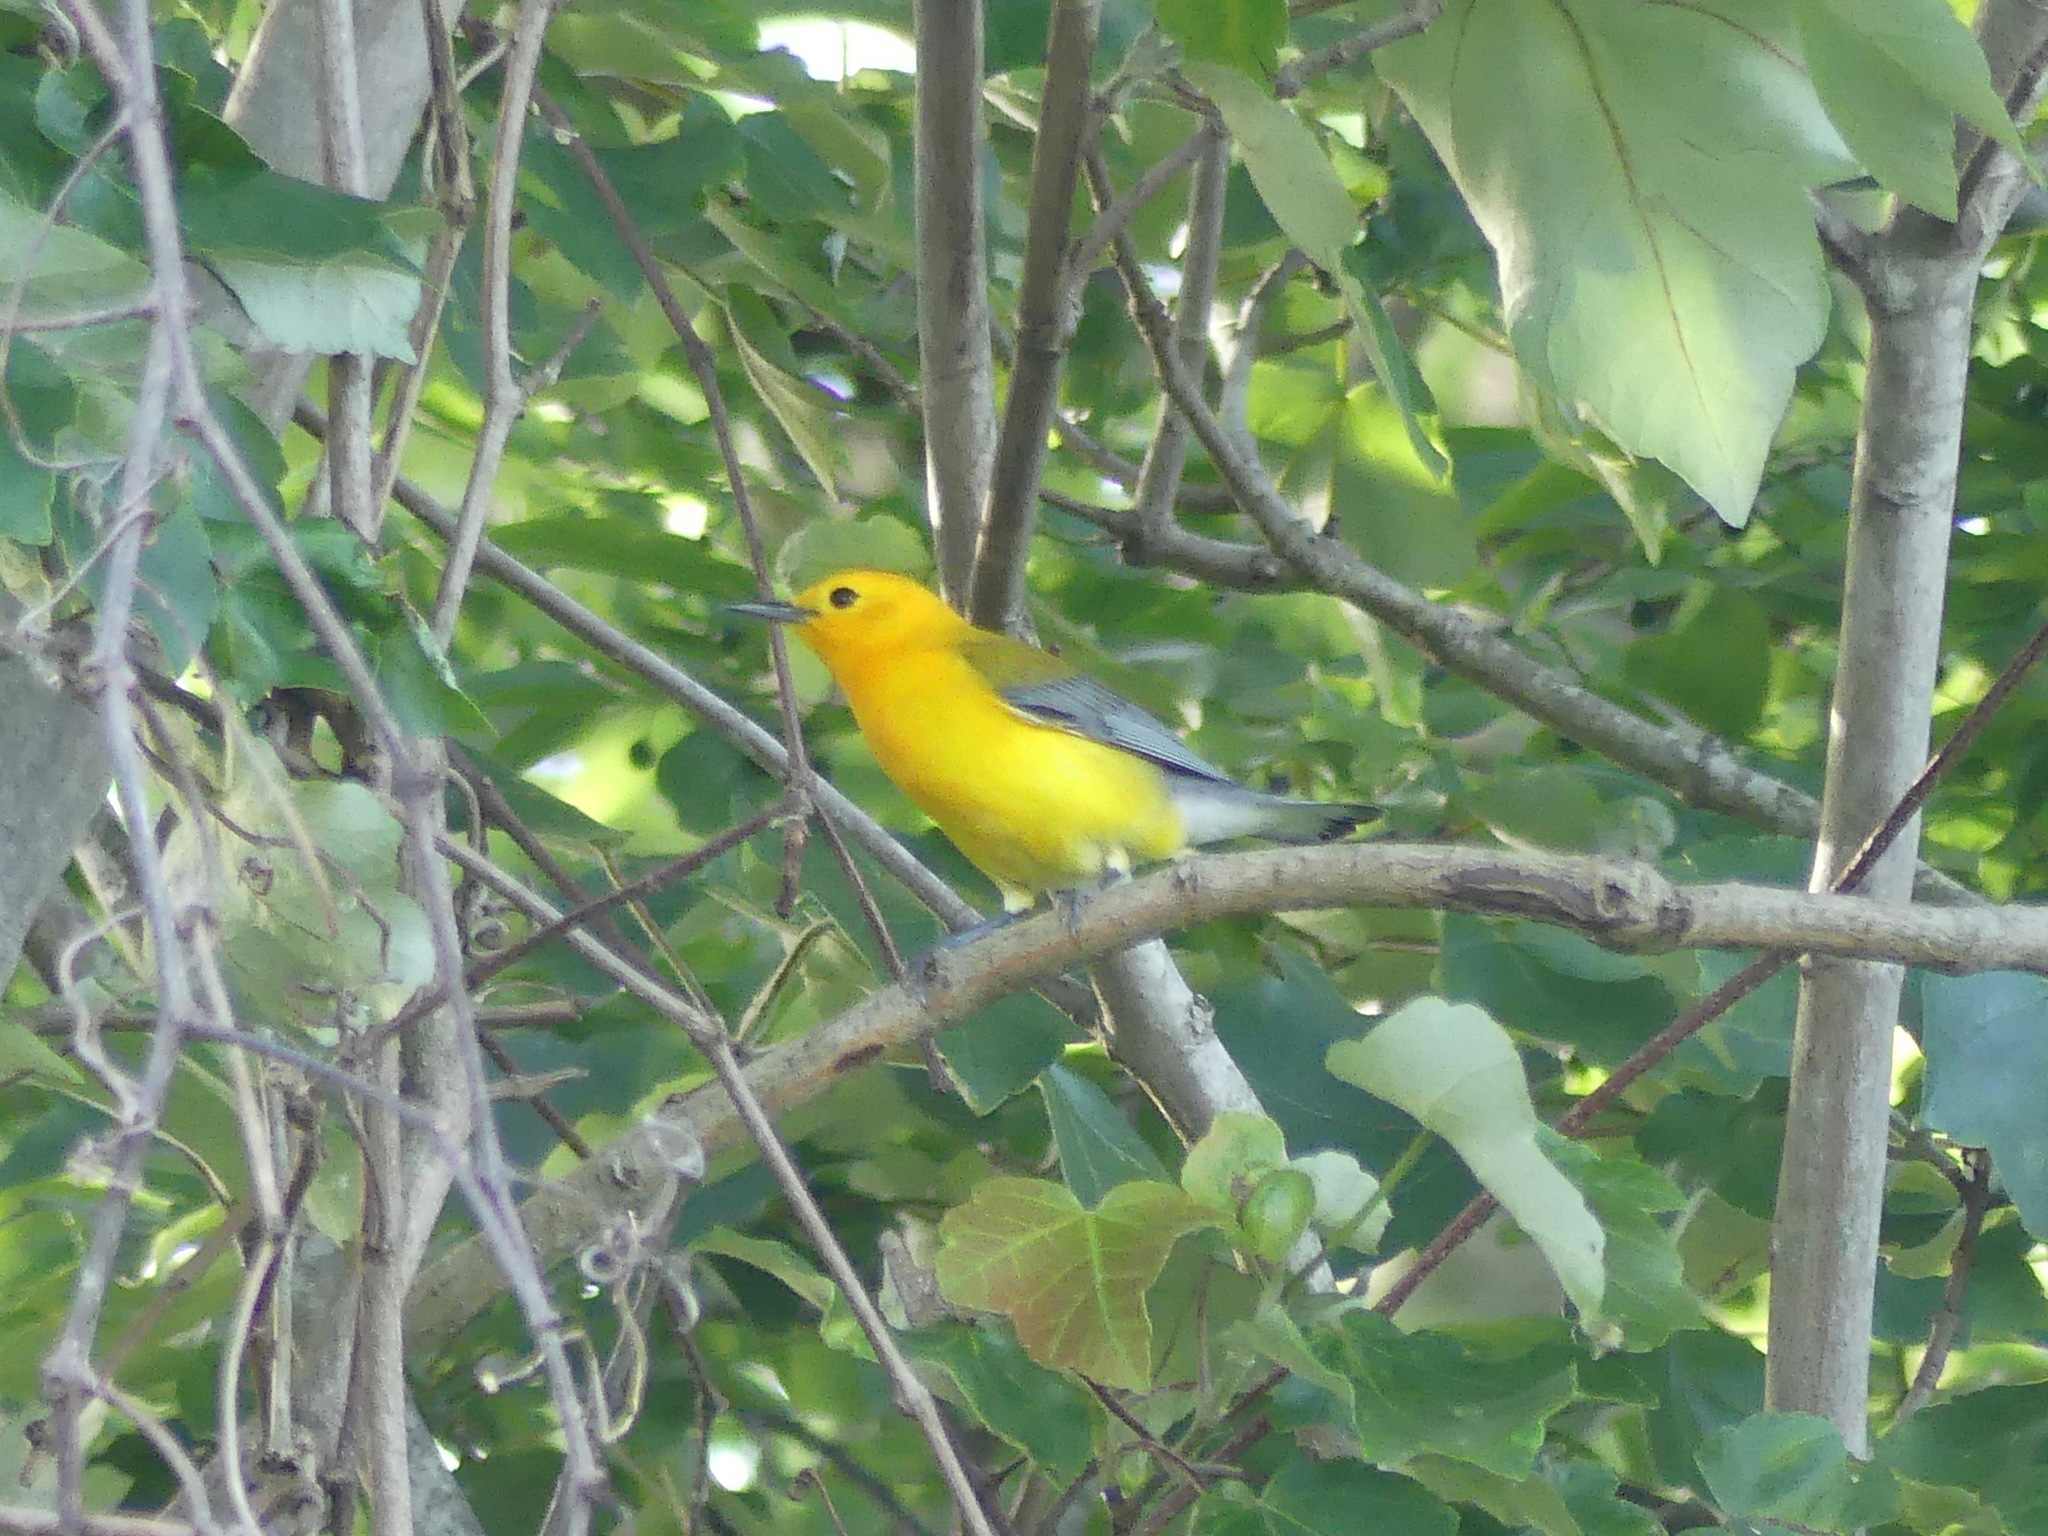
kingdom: Animalia
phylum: Chordata
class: Aves
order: Passeriformes
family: Parulidae
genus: Protonotaria
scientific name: Protonotaria citrea
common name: Prothonotary warbler
